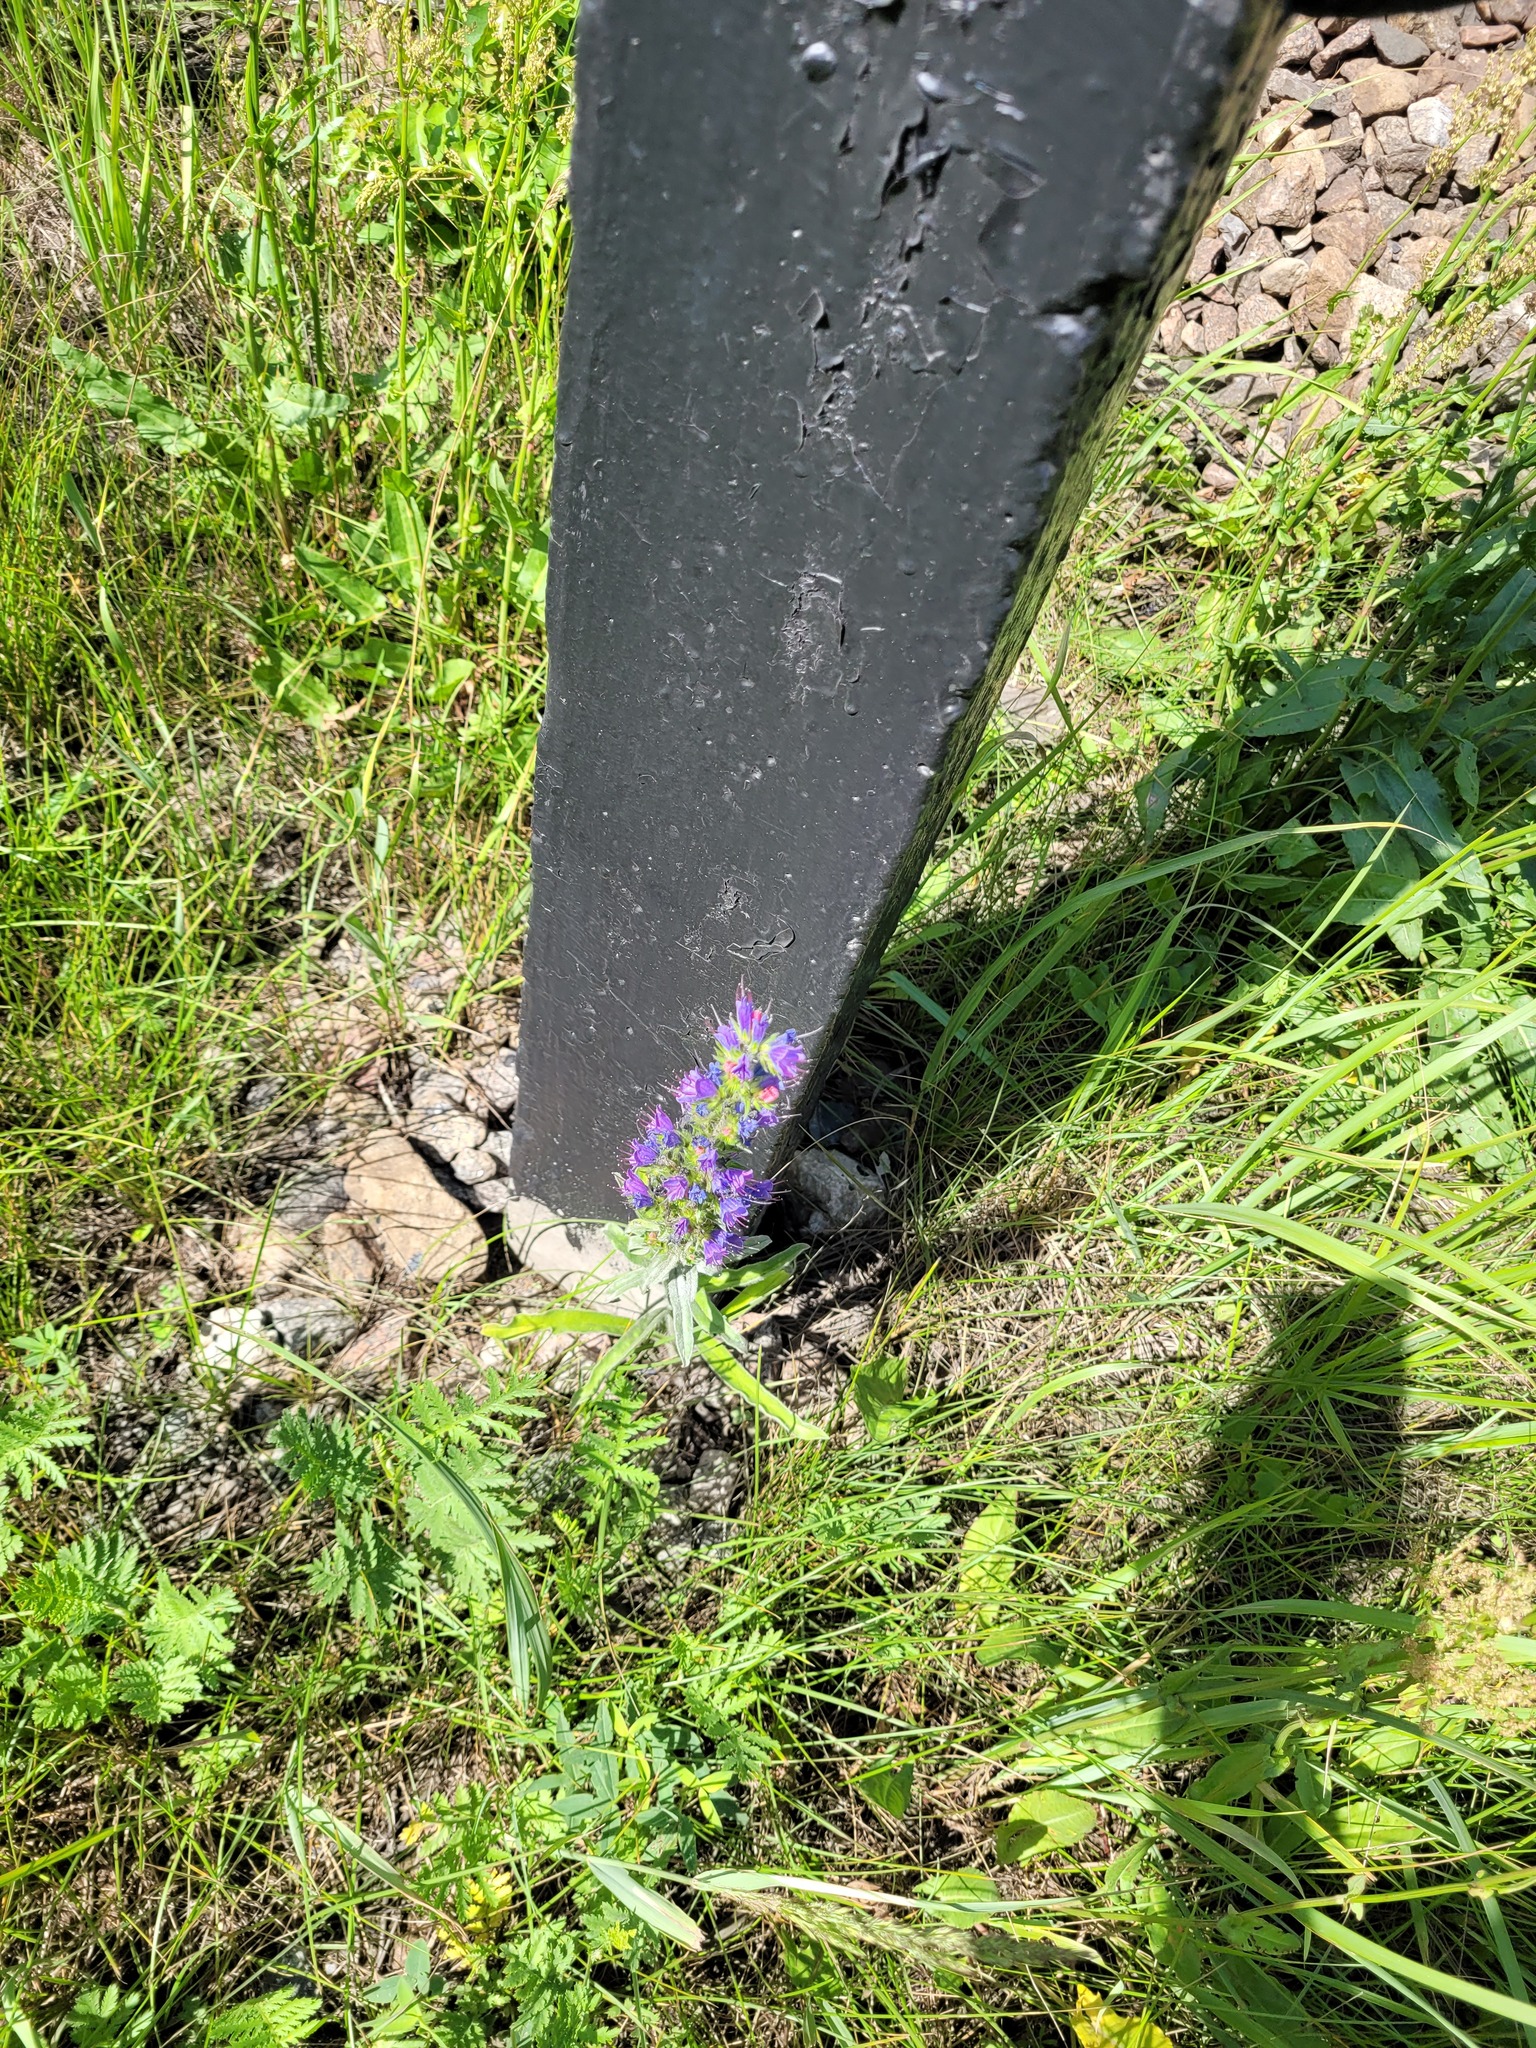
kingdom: Plantae
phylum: Tracheophyta
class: Magnoliopsida
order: Boraginales
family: Boraginaceae
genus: Echium
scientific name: Echium vulgare
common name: Common viper's bugloss
